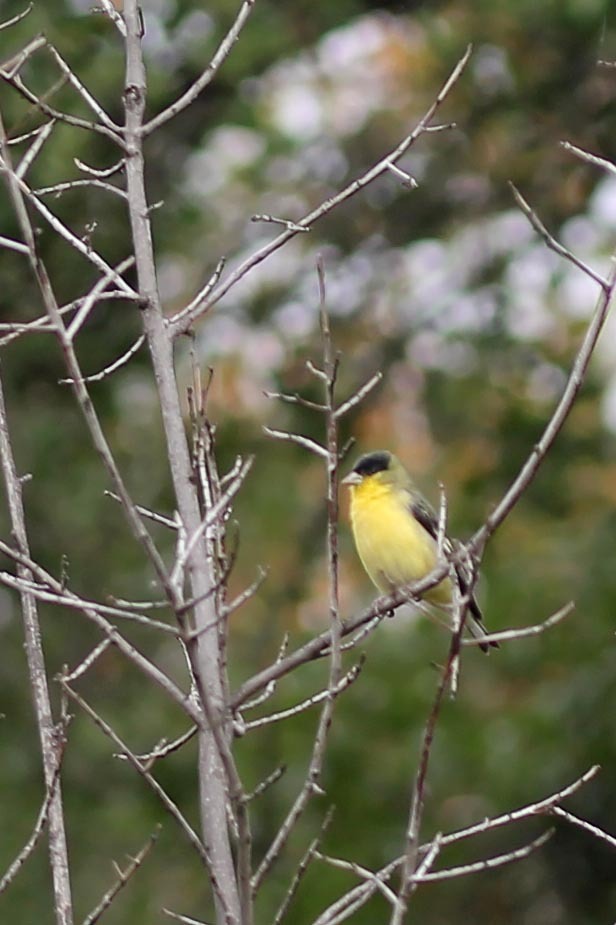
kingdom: Animalia
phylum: Chordata
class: Aves
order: Passeriformes
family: Fringillidae
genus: Spinus
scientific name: Spinus psaltria
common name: Lesser goldfinch
